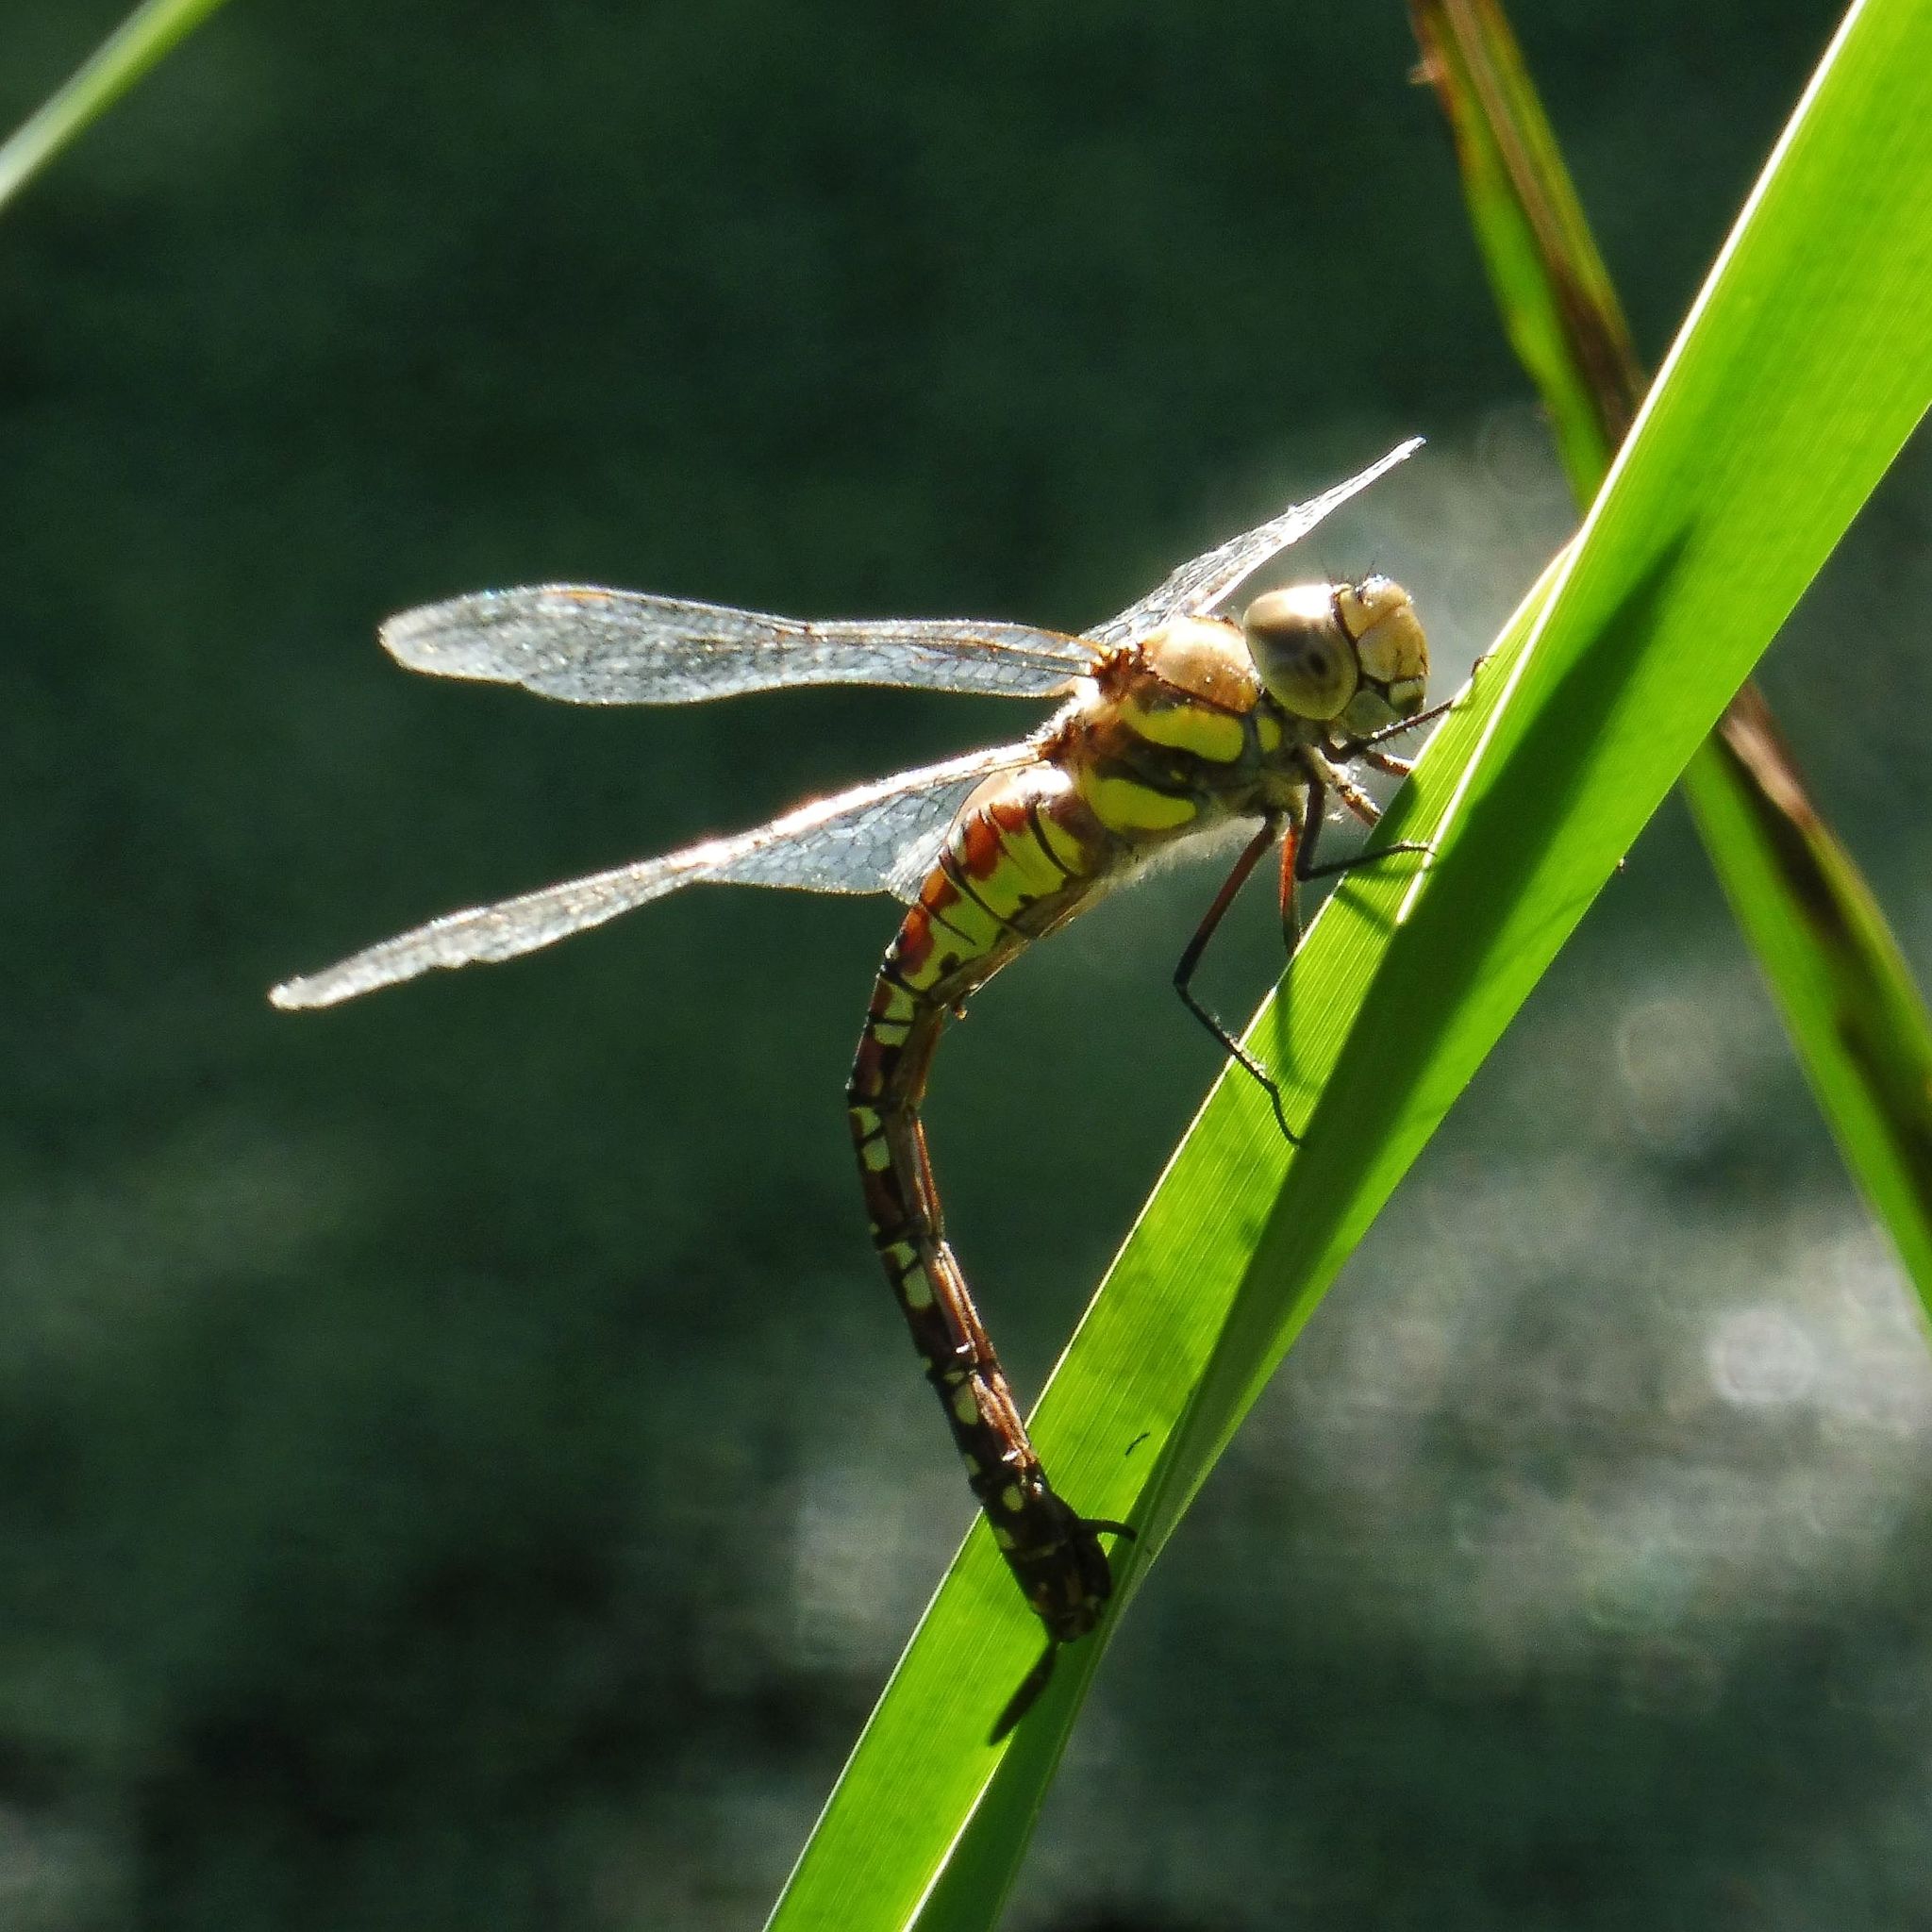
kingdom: Animalia
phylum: Arthropoda
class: Insecta
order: Odonata
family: Aeshnidae
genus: Aeshna
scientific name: Aeshna mixta
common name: Migrant hawker
